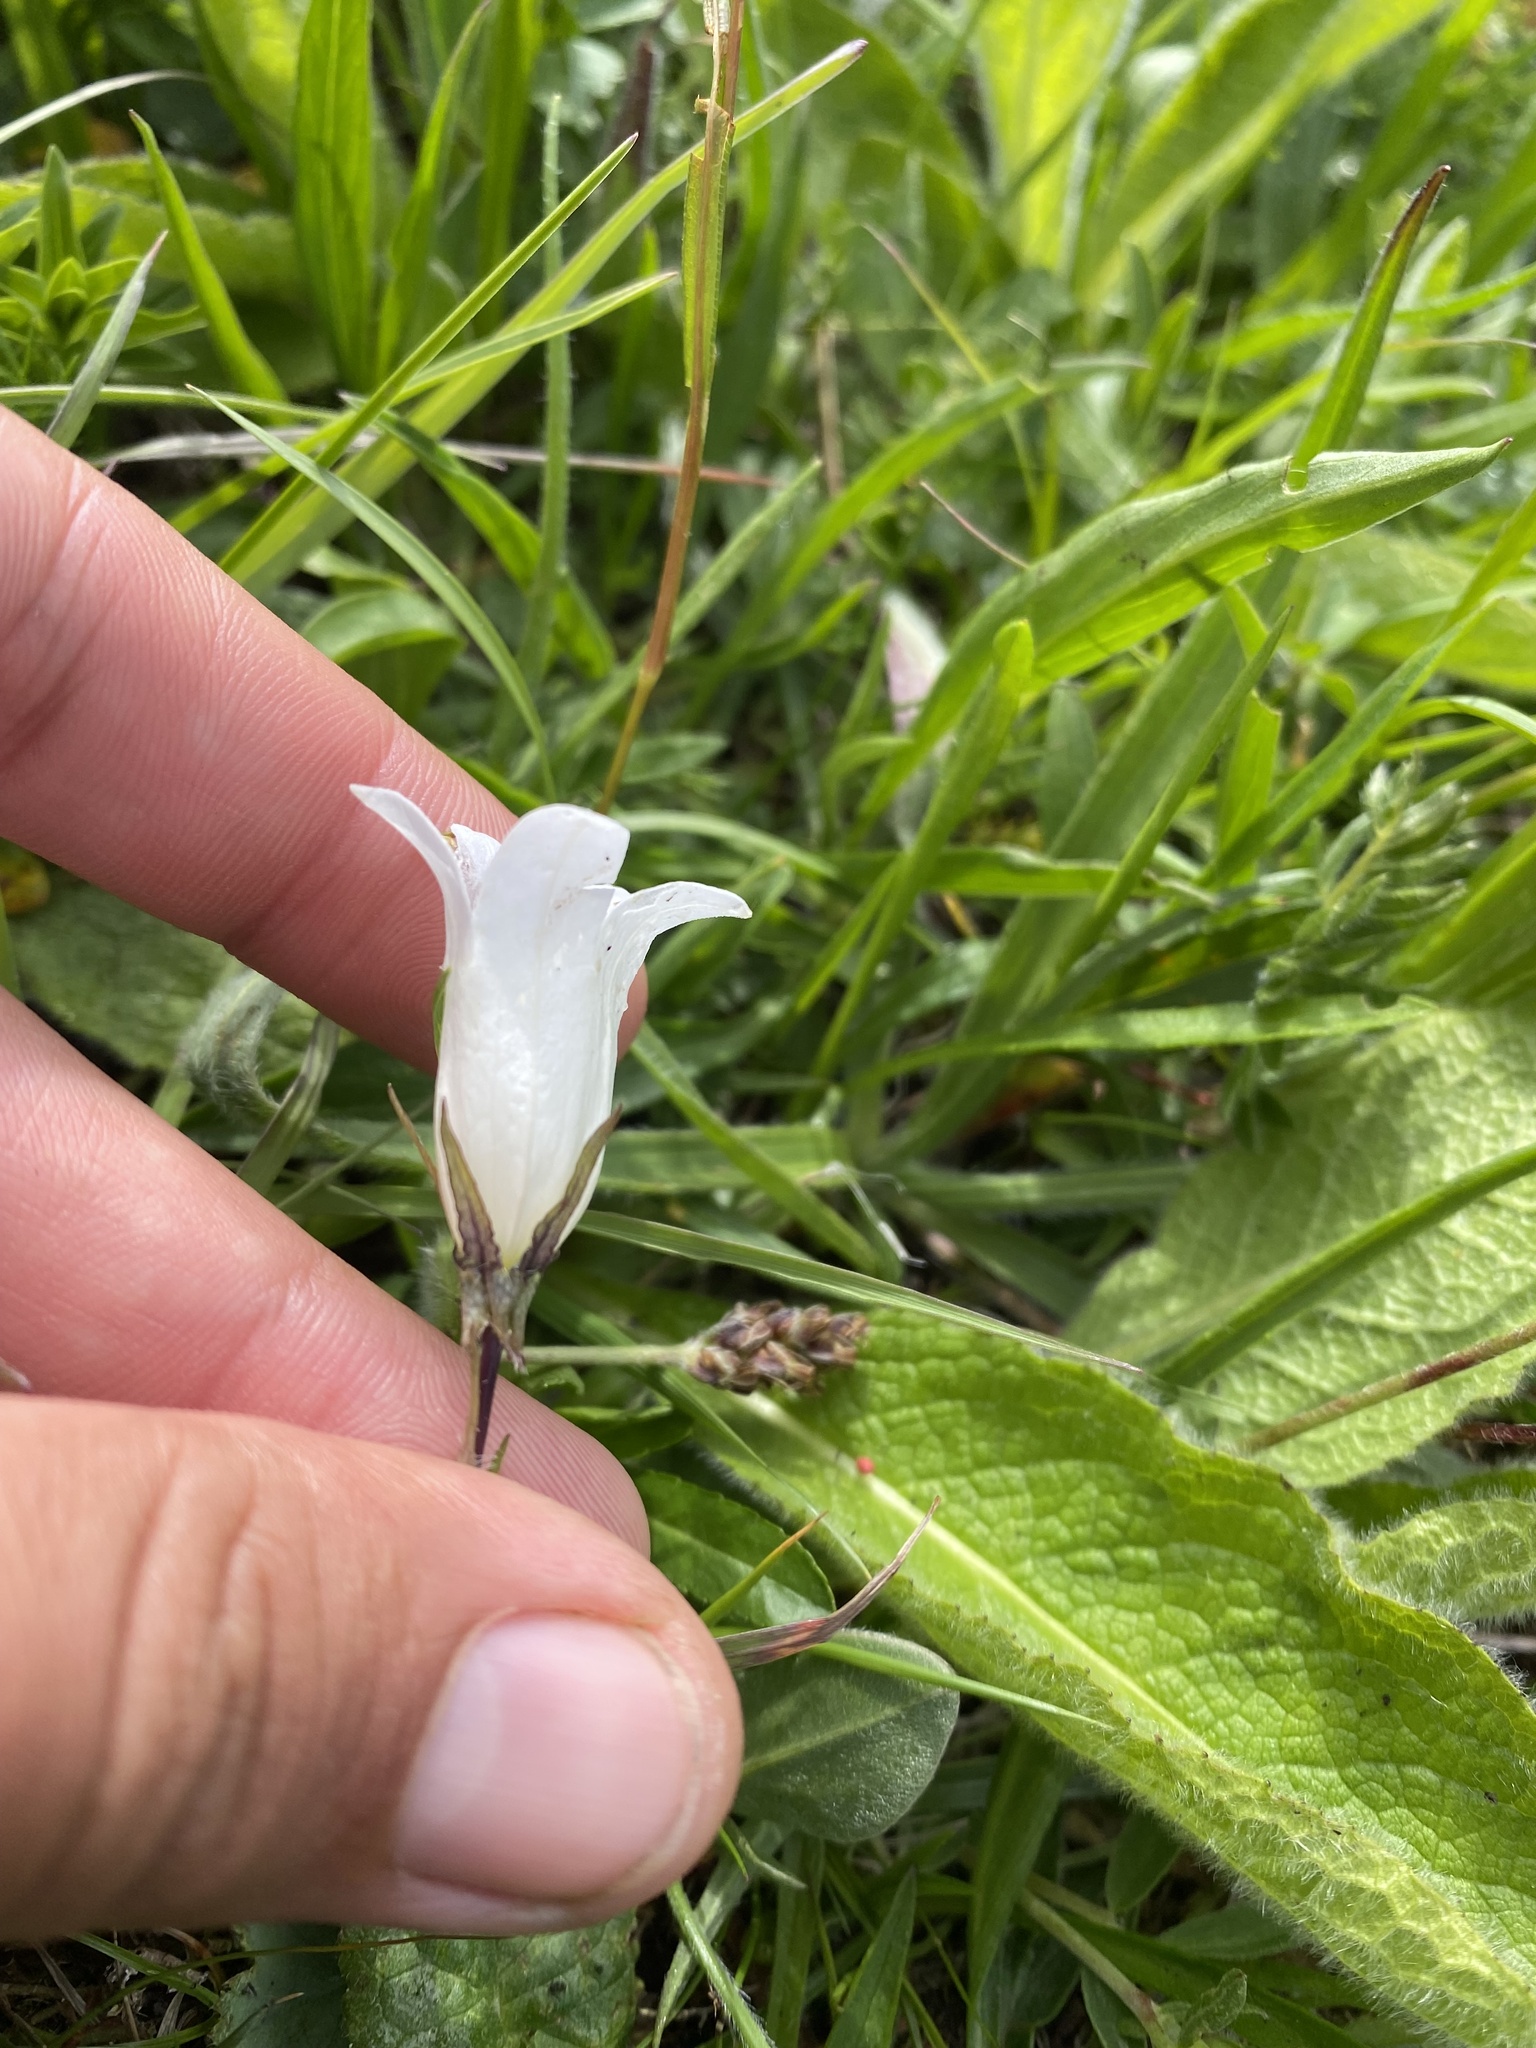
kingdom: Plantae
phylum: Tracheophyta
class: Magnoliopsida
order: Asterales
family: Campanulaceae
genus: Campanula
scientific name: Campanula ciliata
